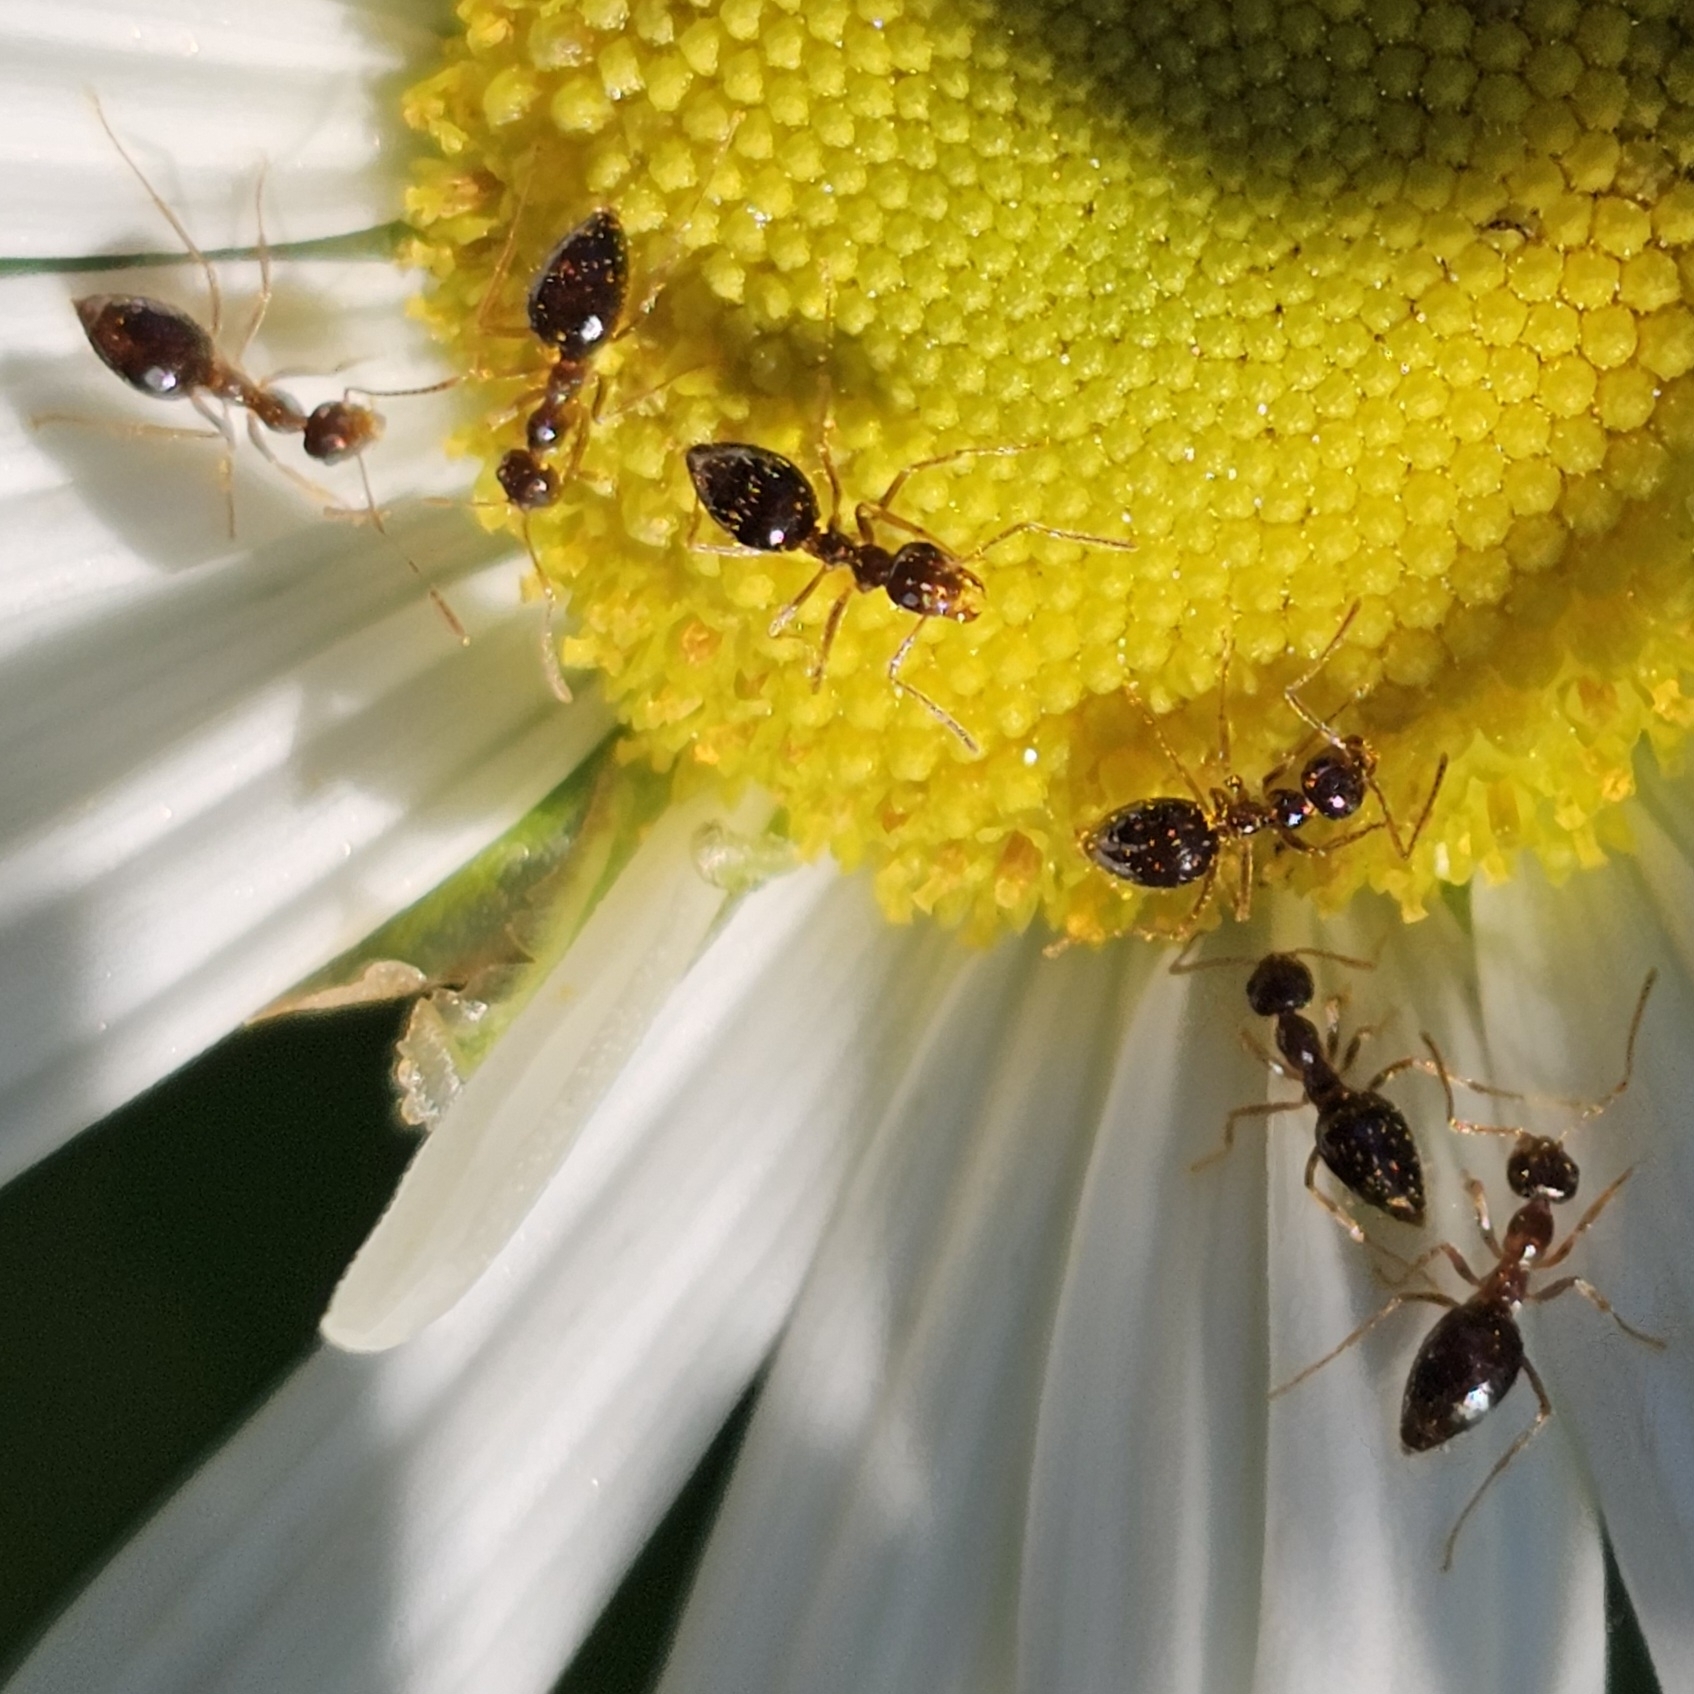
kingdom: Animalia
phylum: Arthropoda
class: Insecta
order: Hymenoptera
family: Formicidae
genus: Prenolepis
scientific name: Prenolepis imparis
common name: Small honey ant
